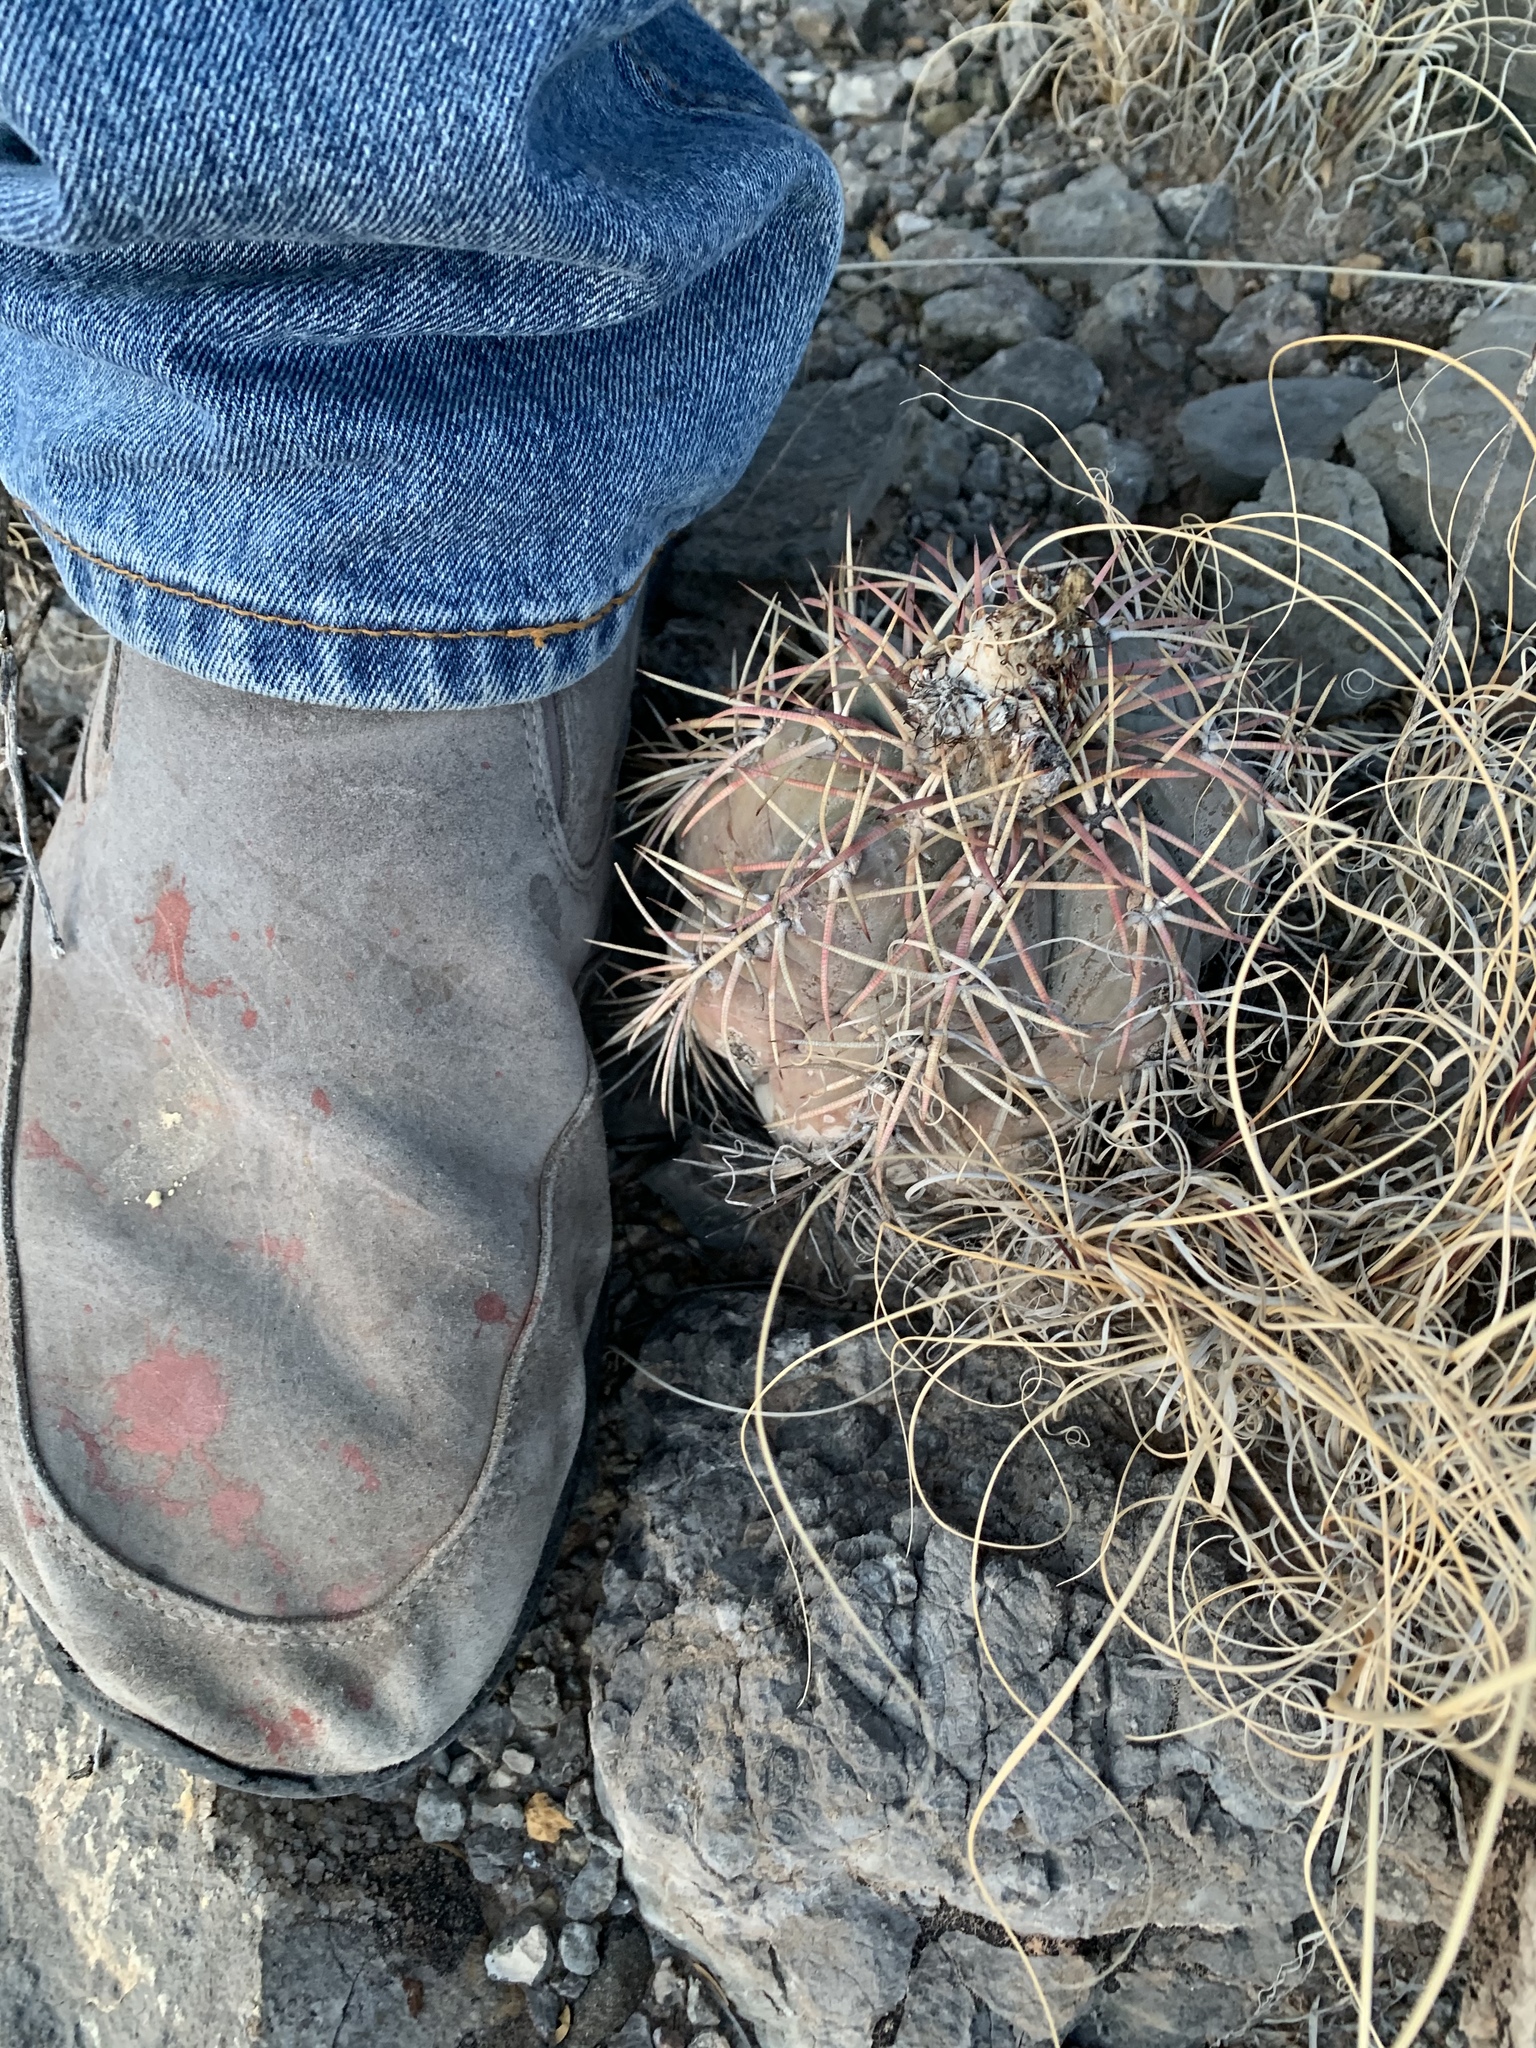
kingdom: Plantae
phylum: Tracheophyta
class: Magnoliopsida
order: Caryophyllales
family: Cactaceae
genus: Echinocactus
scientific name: Echinocactus horizonthalonius
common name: Devilshead
